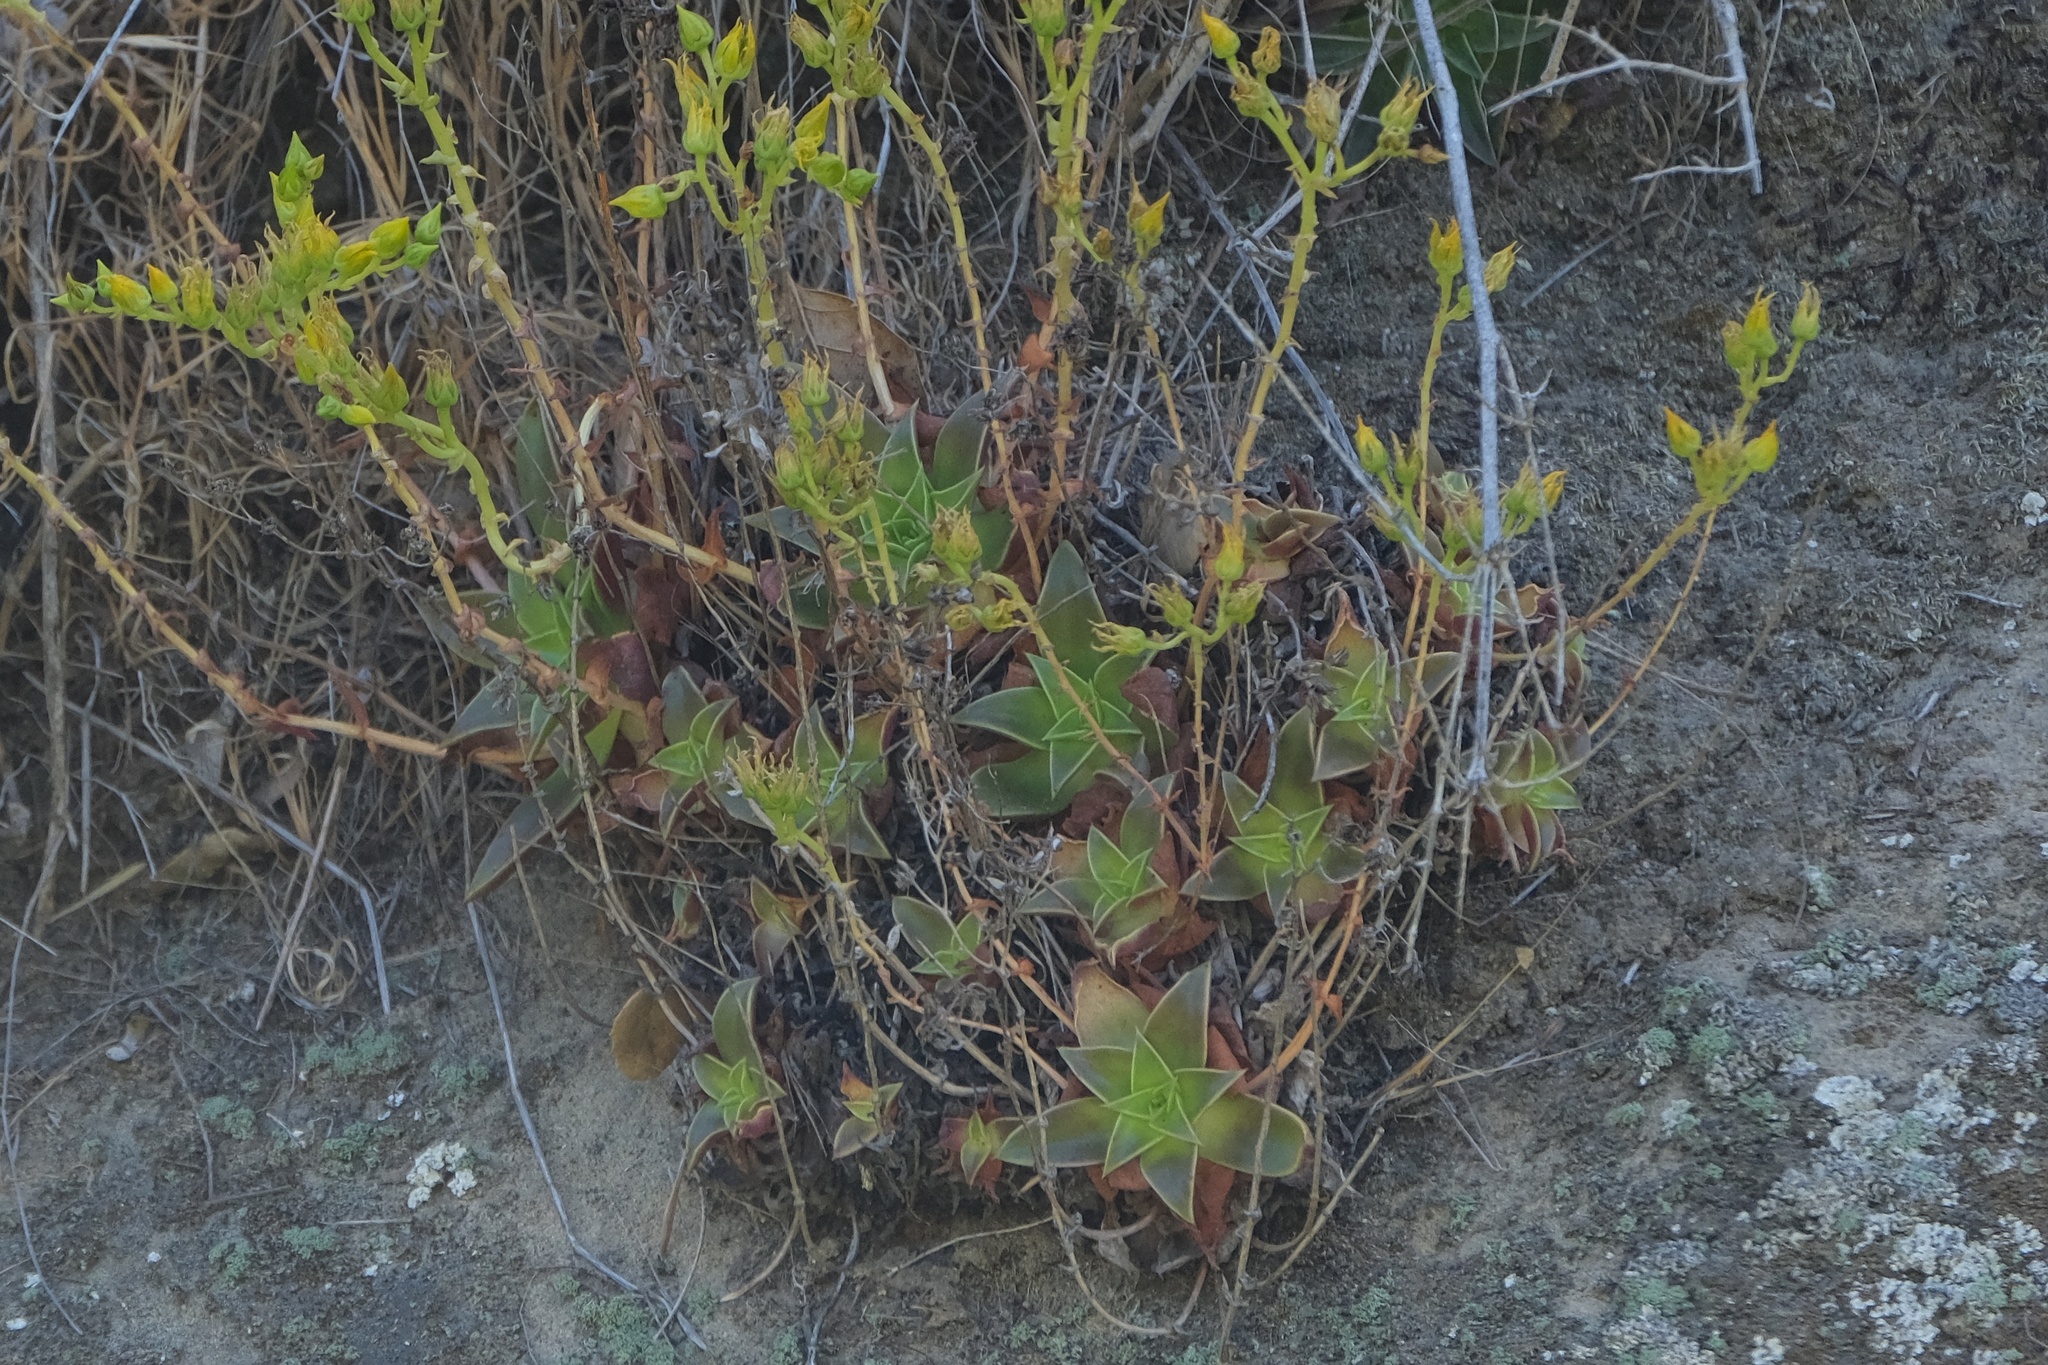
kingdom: Plantae
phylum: Tracheophyta
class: Magnoliopsida
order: Saxifragales
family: Crassulaceae
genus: Dudleya
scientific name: Dudleya stolonifera
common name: Laguna beach dudleya
